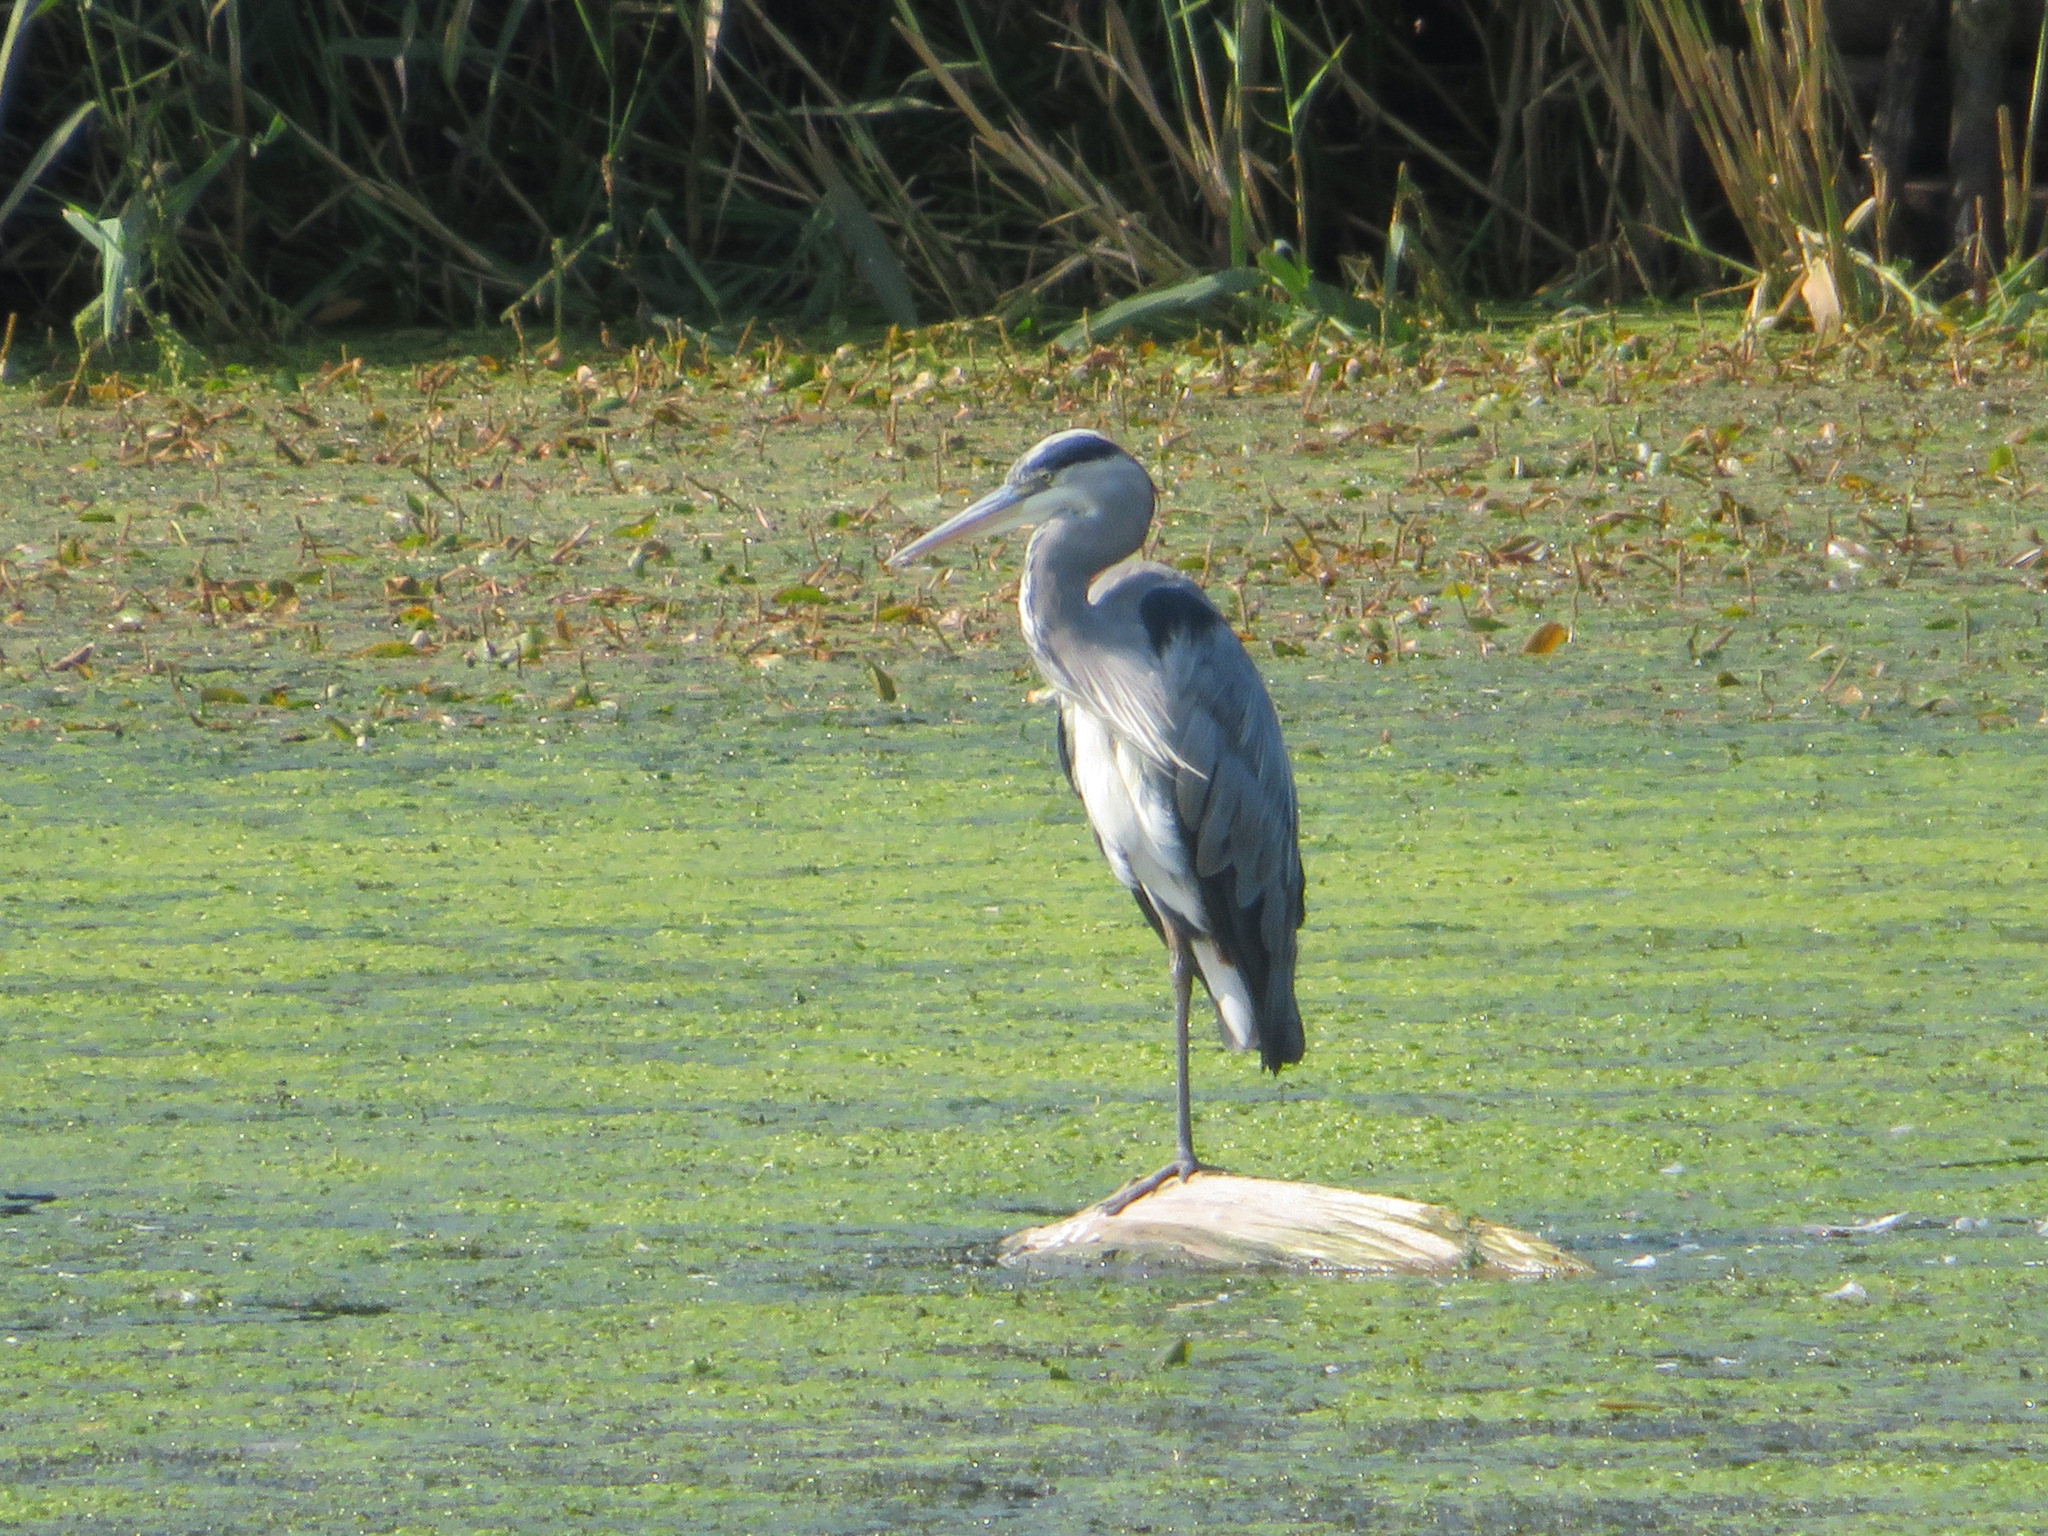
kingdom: Animalia
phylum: Chordata
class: Aves
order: Pelecaniformes
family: Ardeidae
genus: Ardea
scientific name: Ardea cinerea
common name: Grey heron
